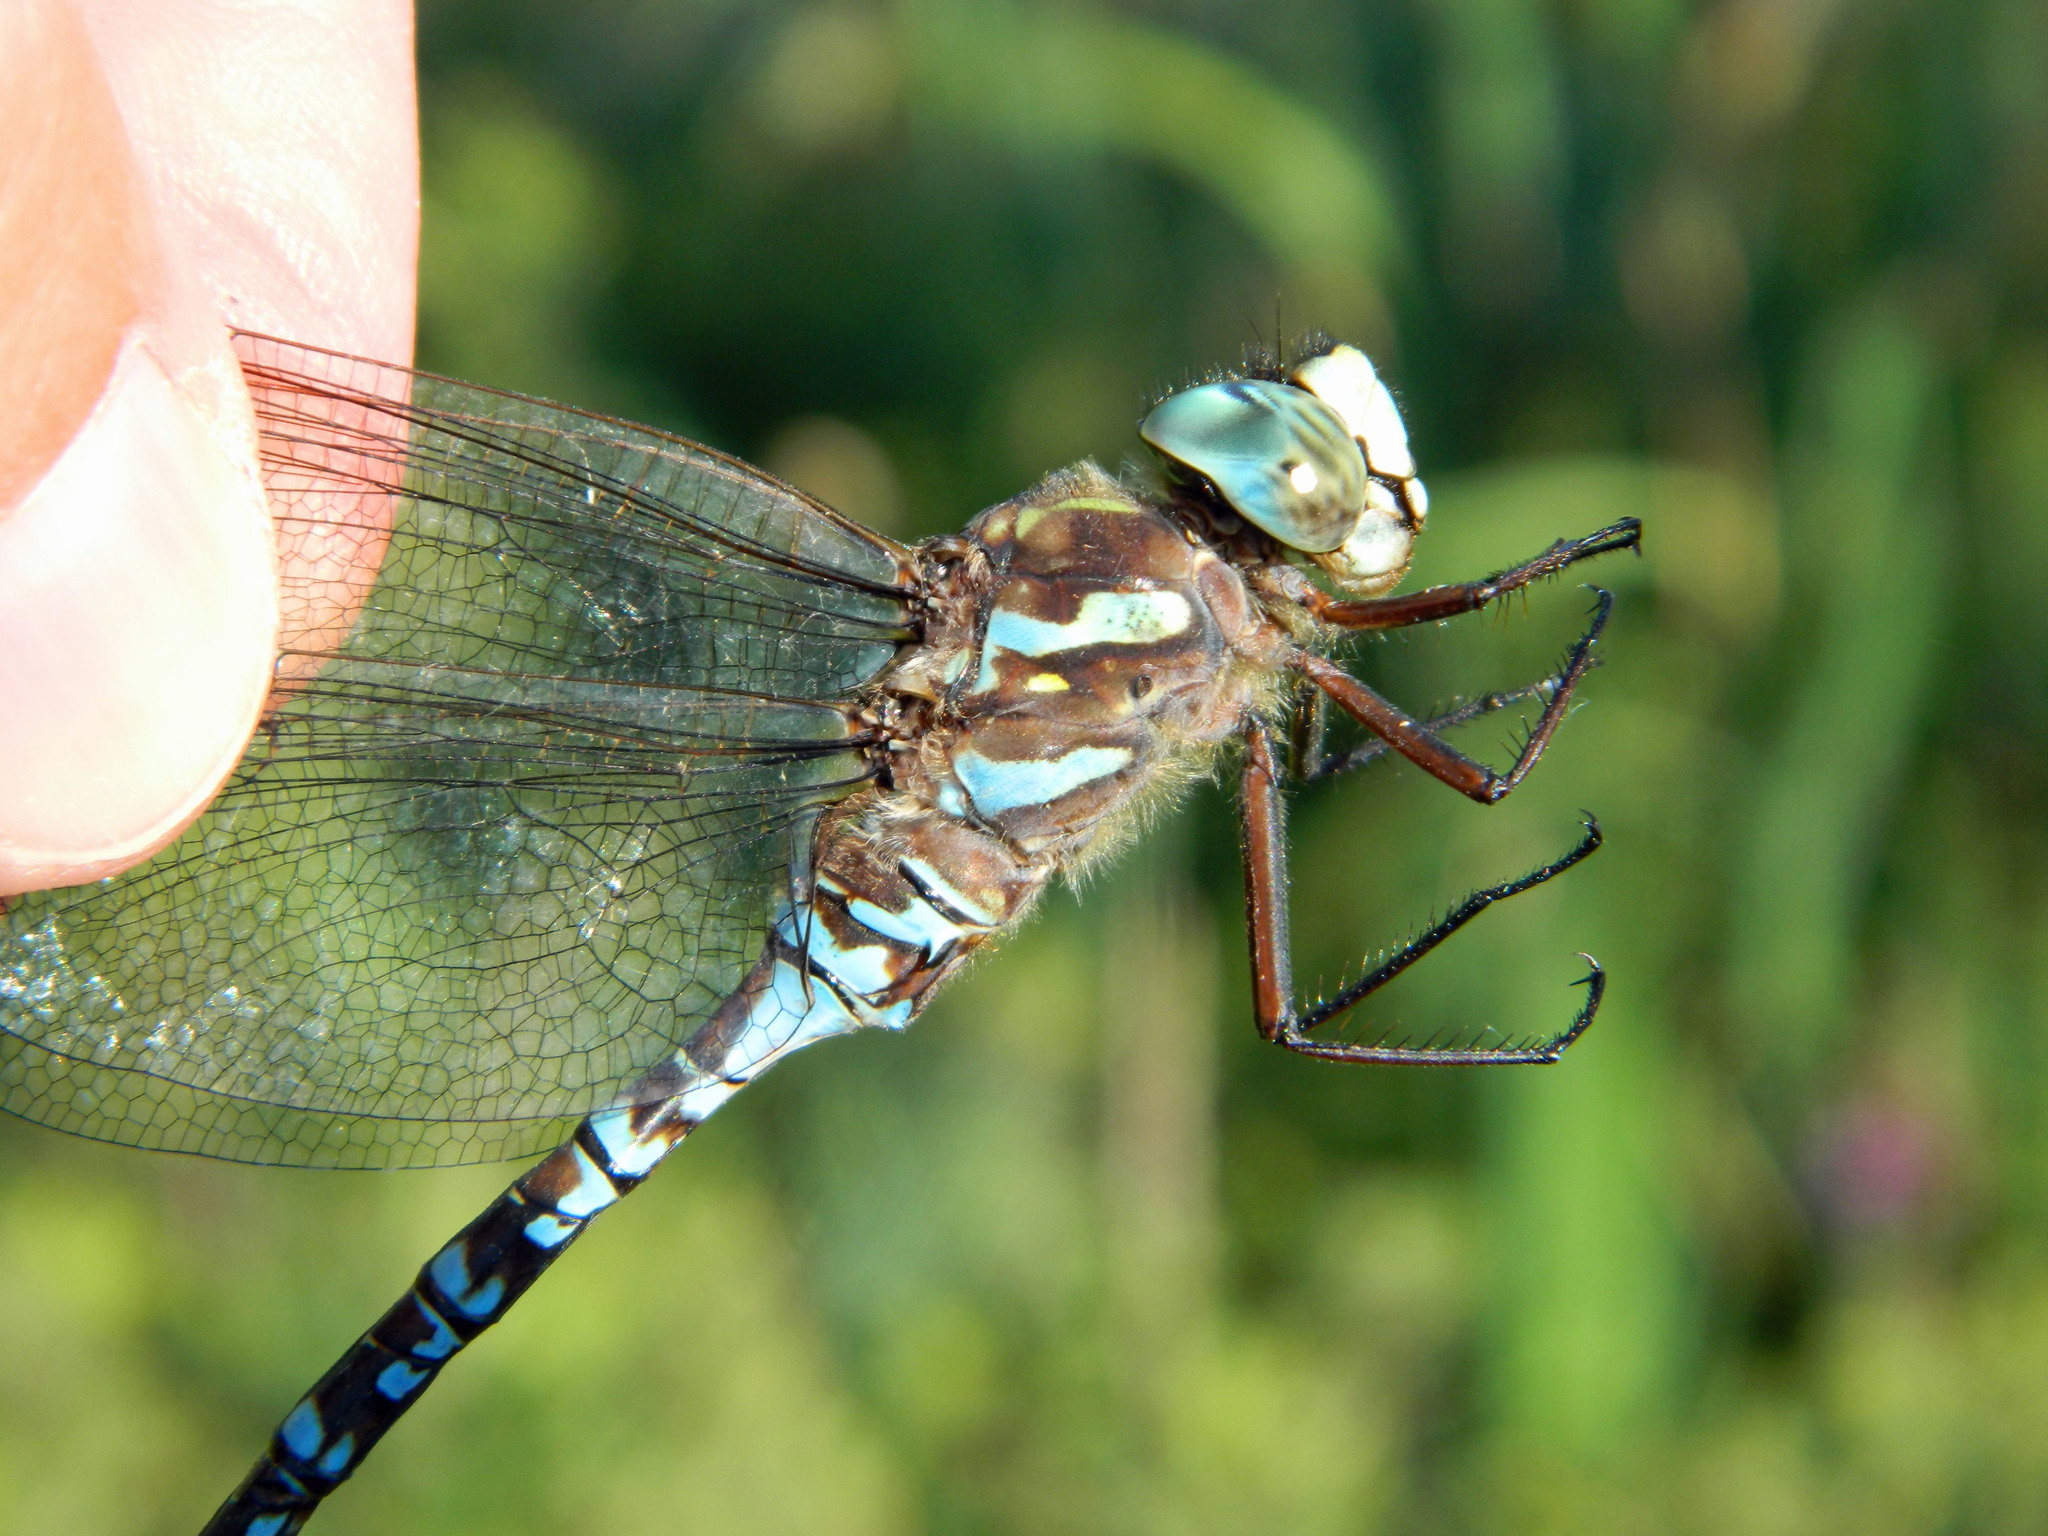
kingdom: Animalia
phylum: Arthropoda
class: Insecta
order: Odonata
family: Aeshnidae
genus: Aeshna
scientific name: Aeshna canadensis
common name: Canada darner
